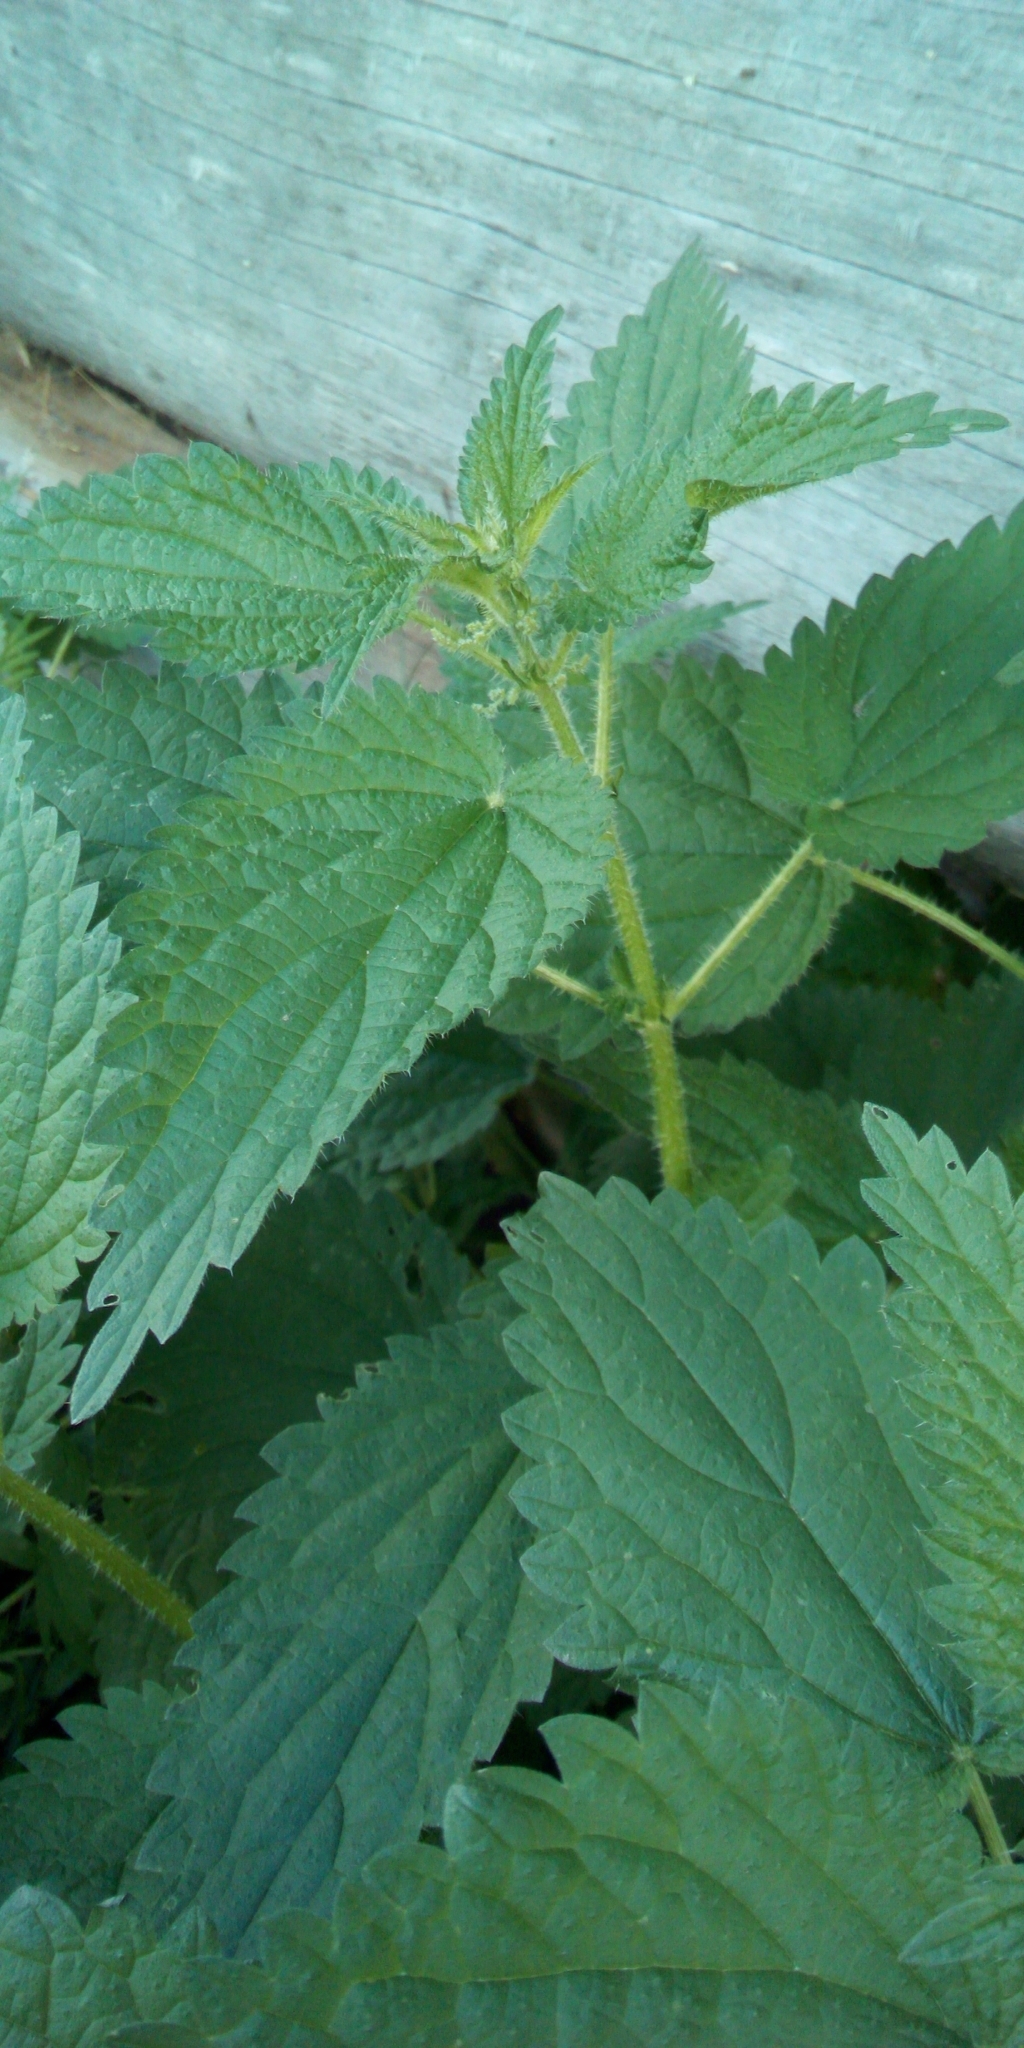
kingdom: Plantae
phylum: Tracheophyta
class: Magnoliopsida
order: Rosales
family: Urticaceae
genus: Urtica
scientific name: Urtica dioica
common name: Common nettle
